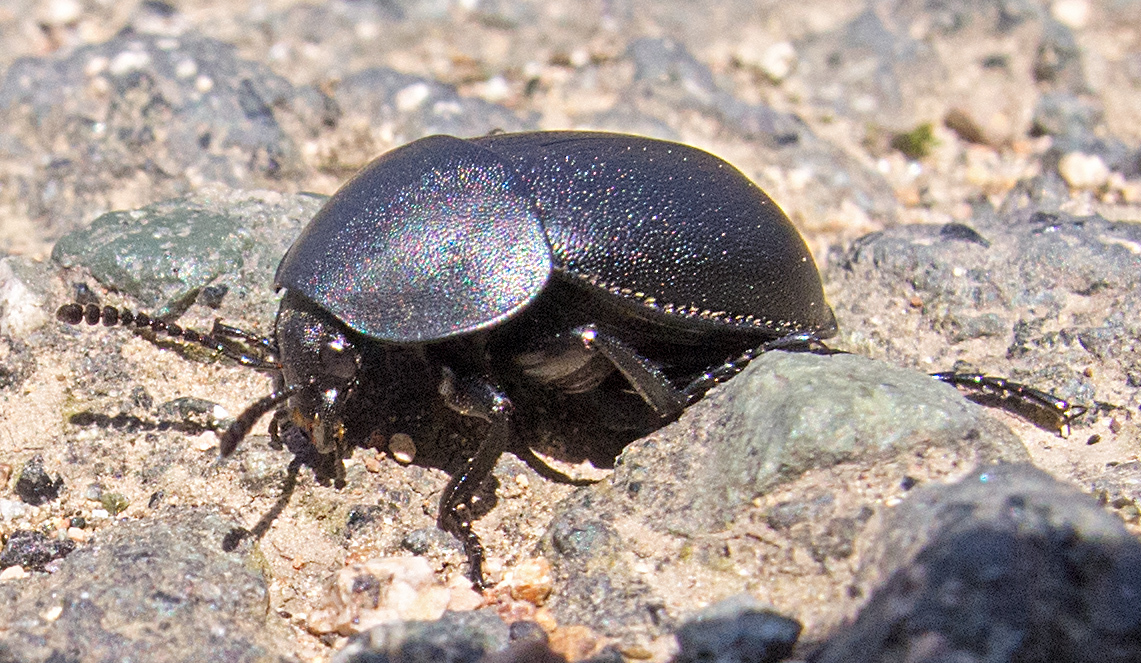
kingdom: Animalia
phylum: Arthropoda
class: Insecta
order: Coleoptera
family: Staphylinidae
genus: Silpha
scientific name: Silpha laevigata
